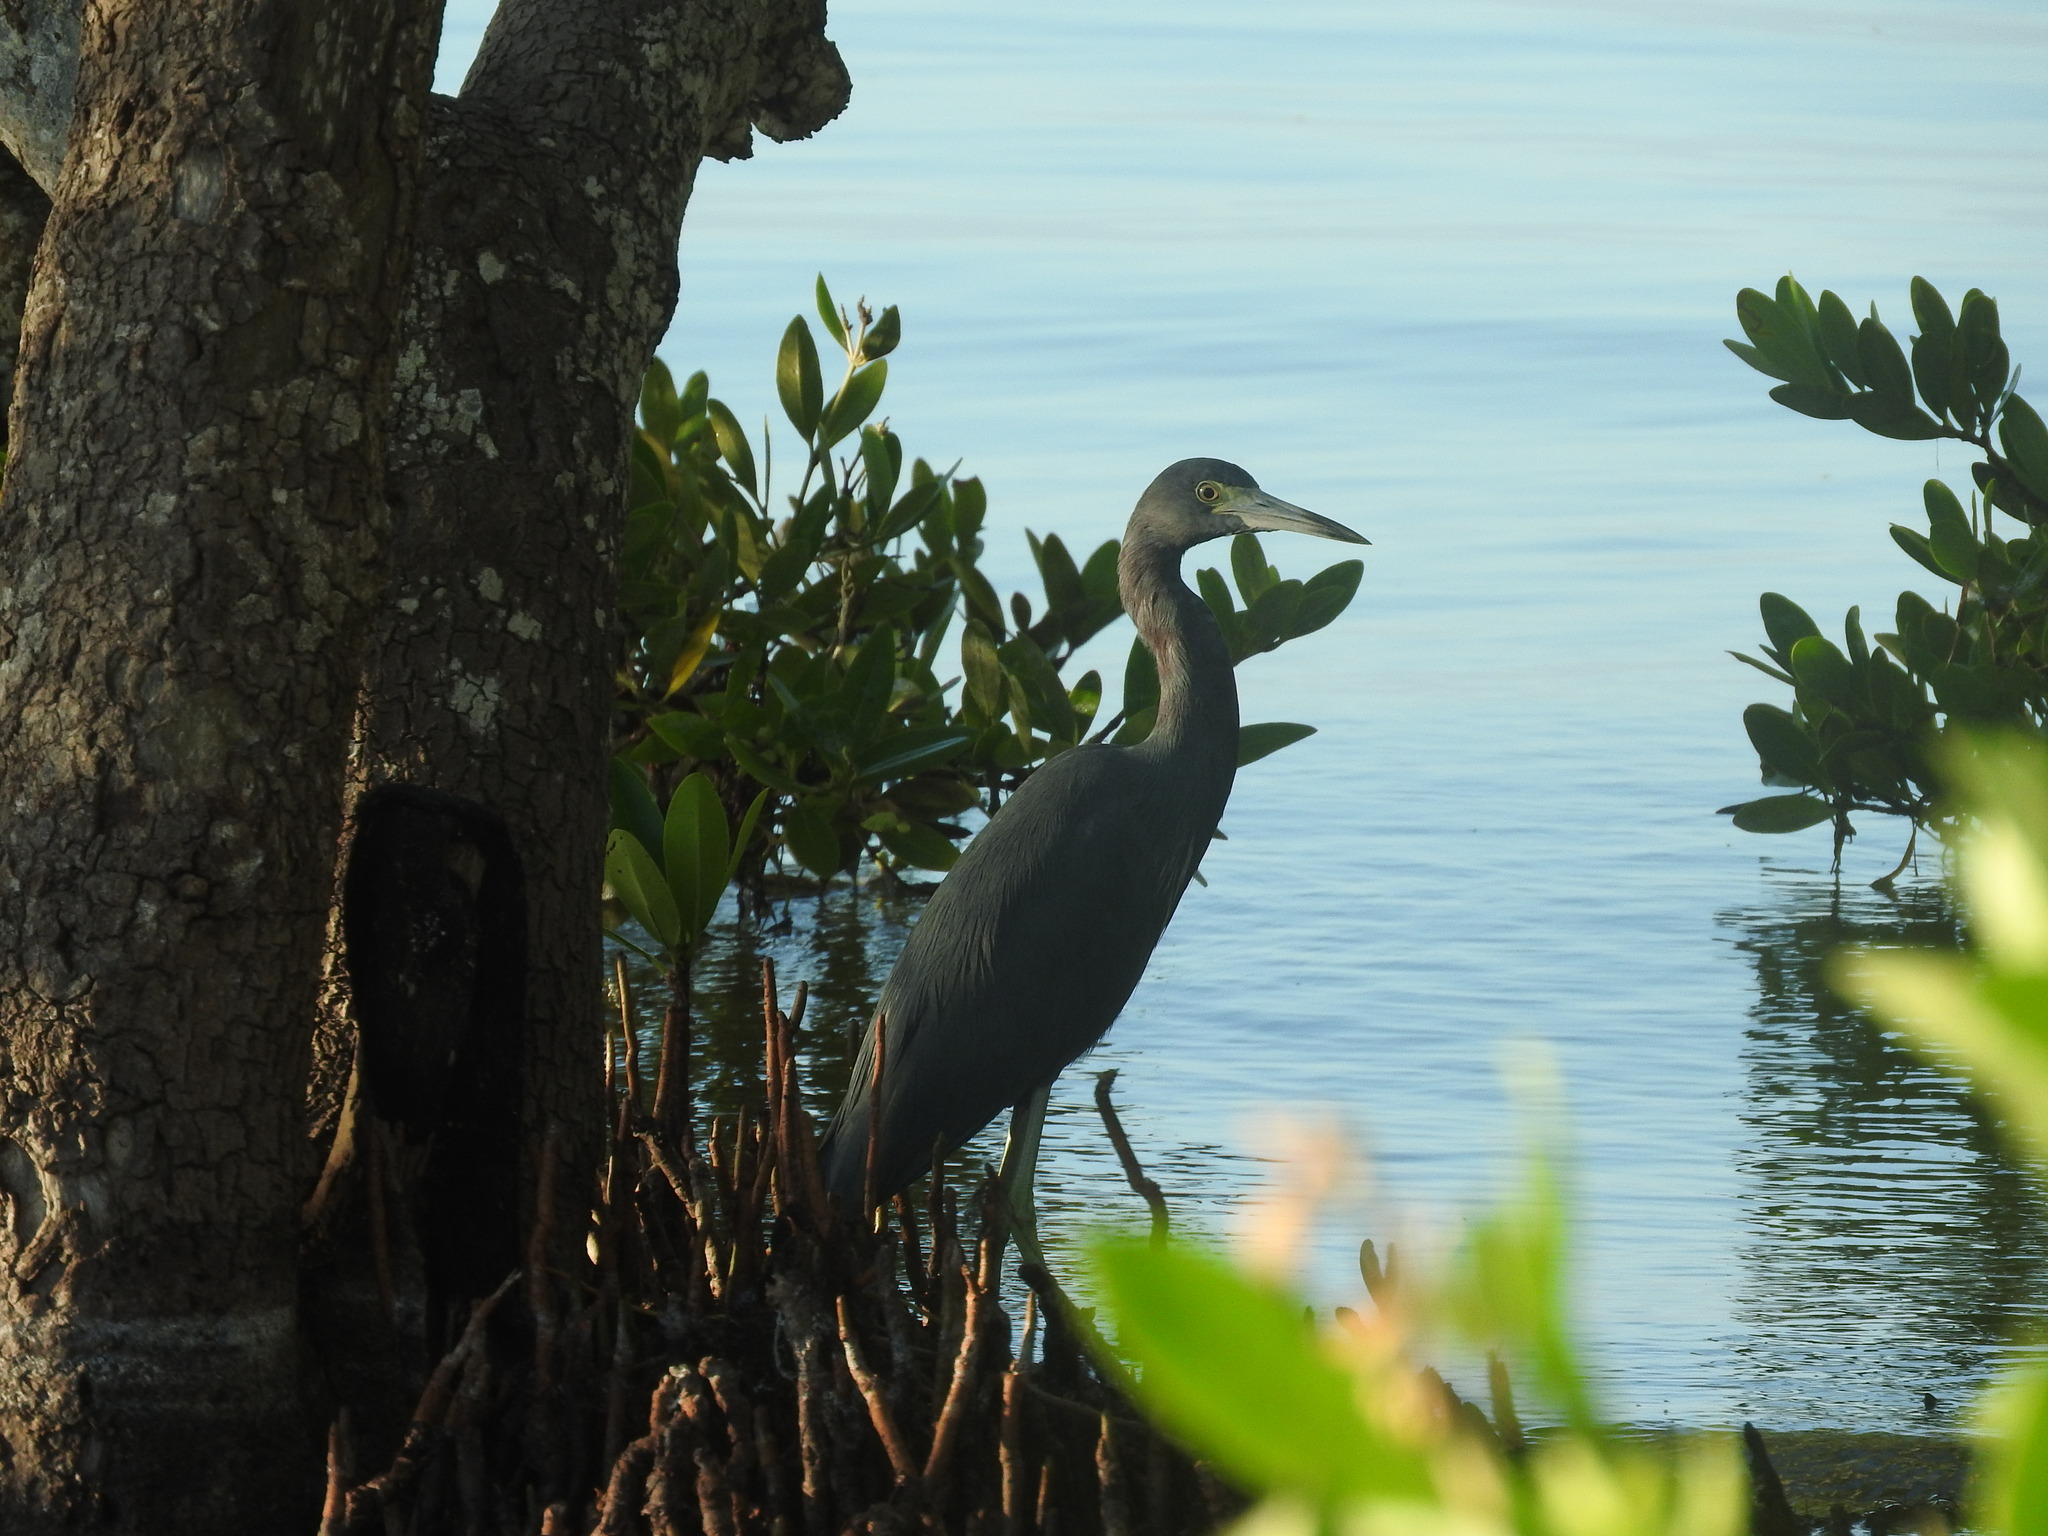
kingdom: Animalia
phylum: Chordata
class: Aves
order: Pelecaniformes
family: Ardeidae
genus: Egretta
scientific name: Egretta caerulea
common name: Little blue heron
